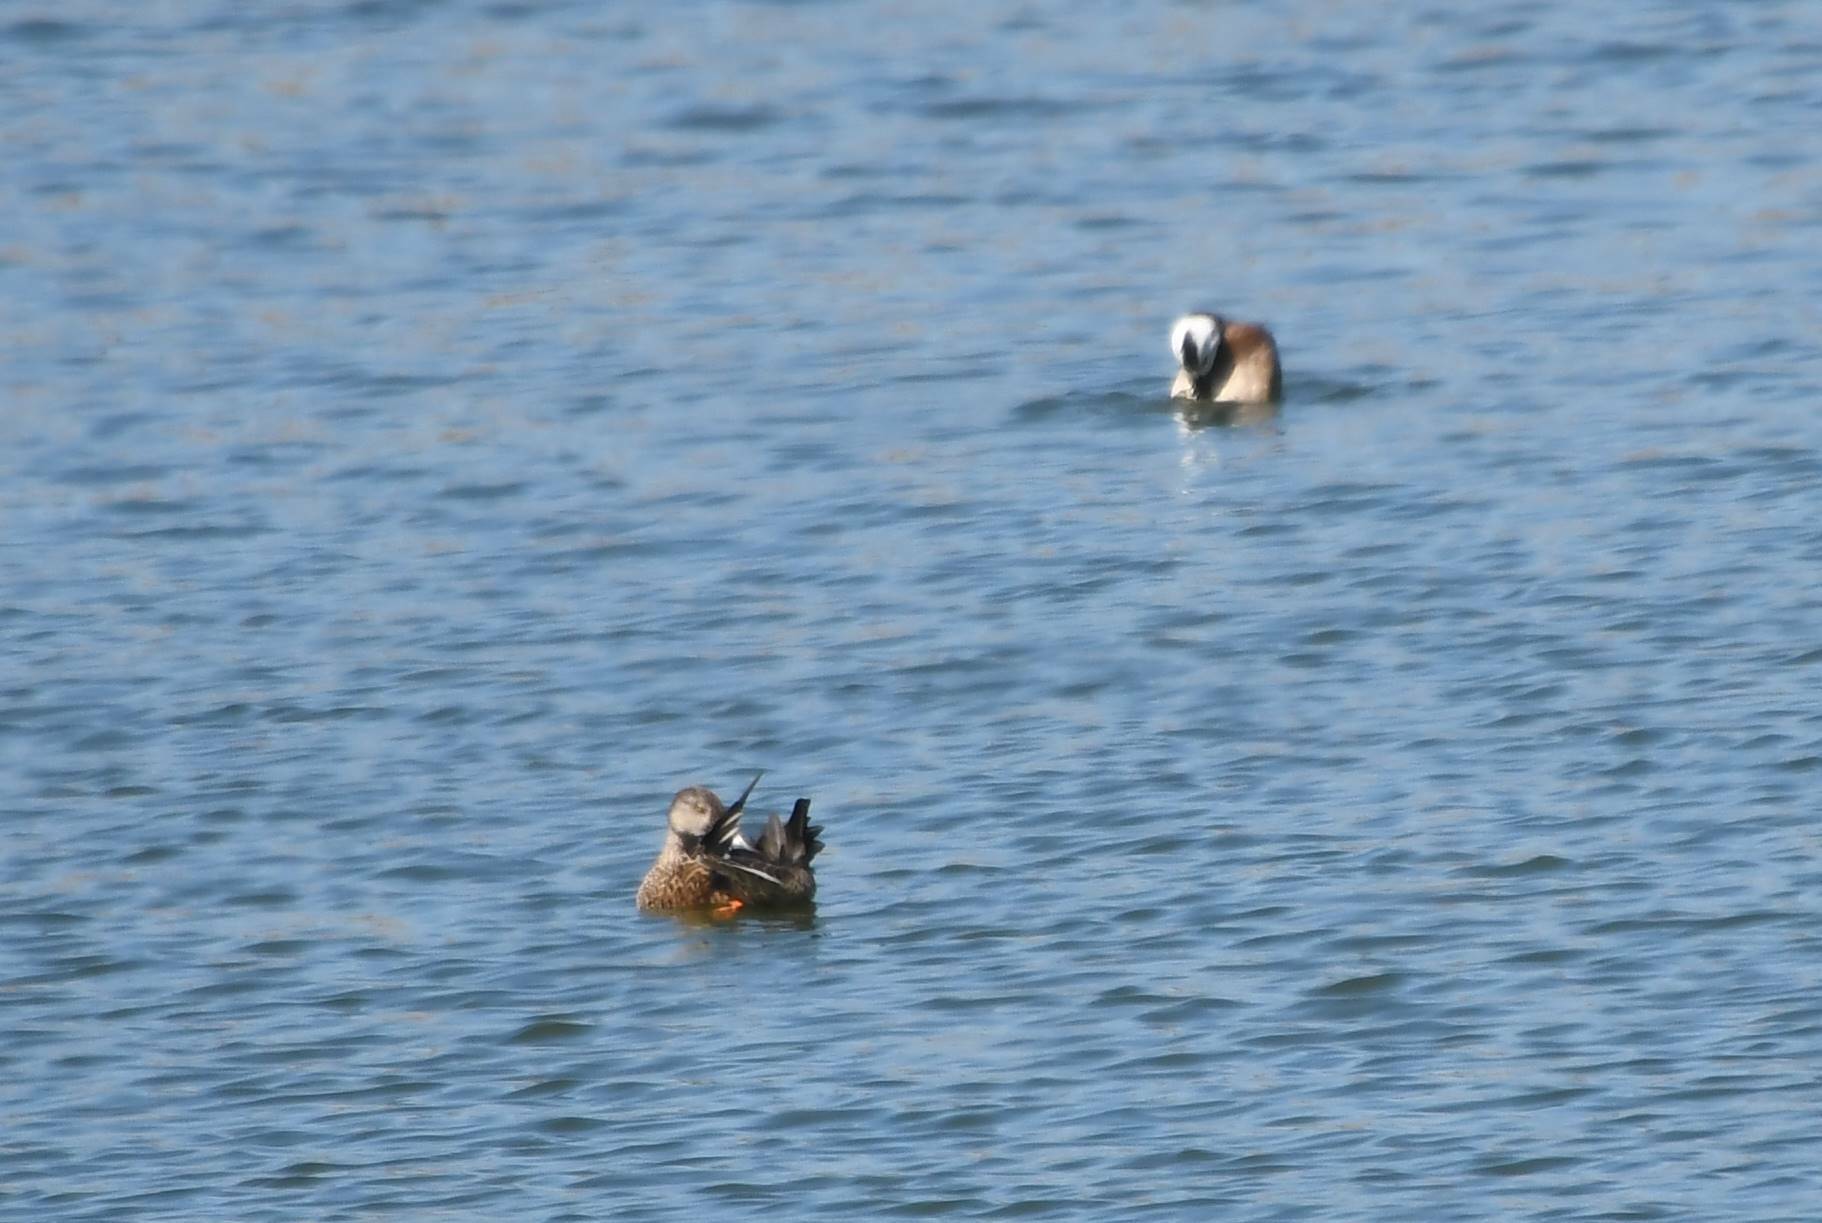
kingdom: Animalia
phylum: Chordata
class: Aves
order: Anseriformes
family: Anatidae
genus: Oxyura
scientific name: Oxyura leucocephala
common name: White-headed duck
